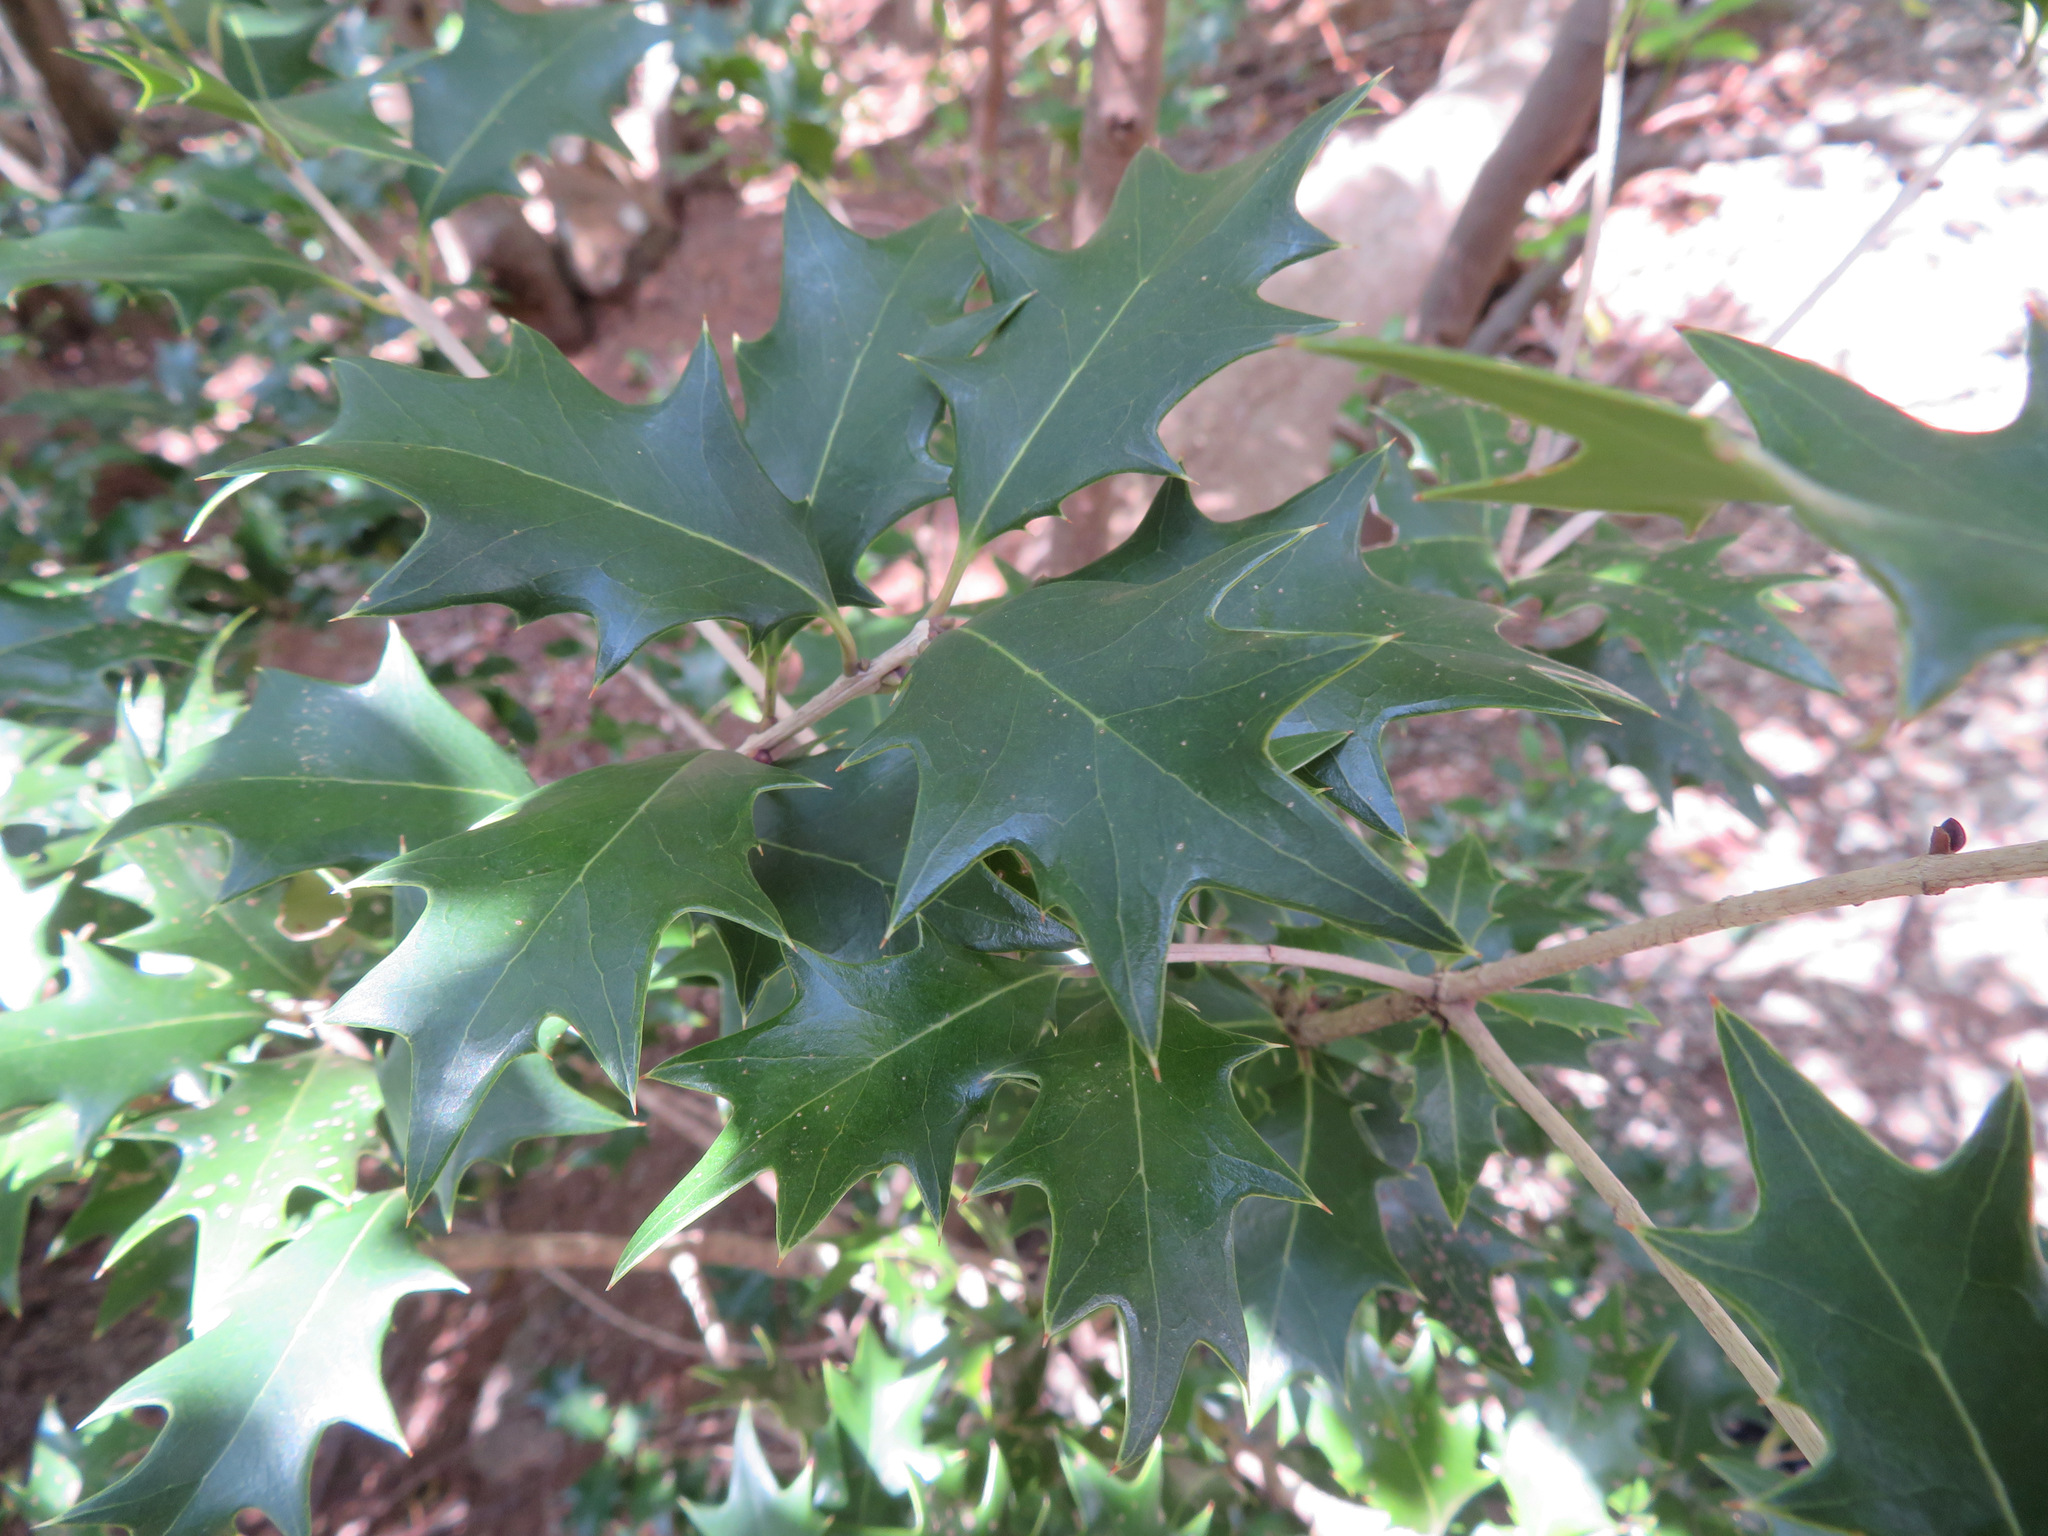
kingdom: Plantae
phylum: Tracheophyta
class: Magnoliopsida
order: Lamiales
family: Oleaceae
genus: Osmanthus
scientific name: Osmanthus heterophyllus
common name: Holly osmanthus
